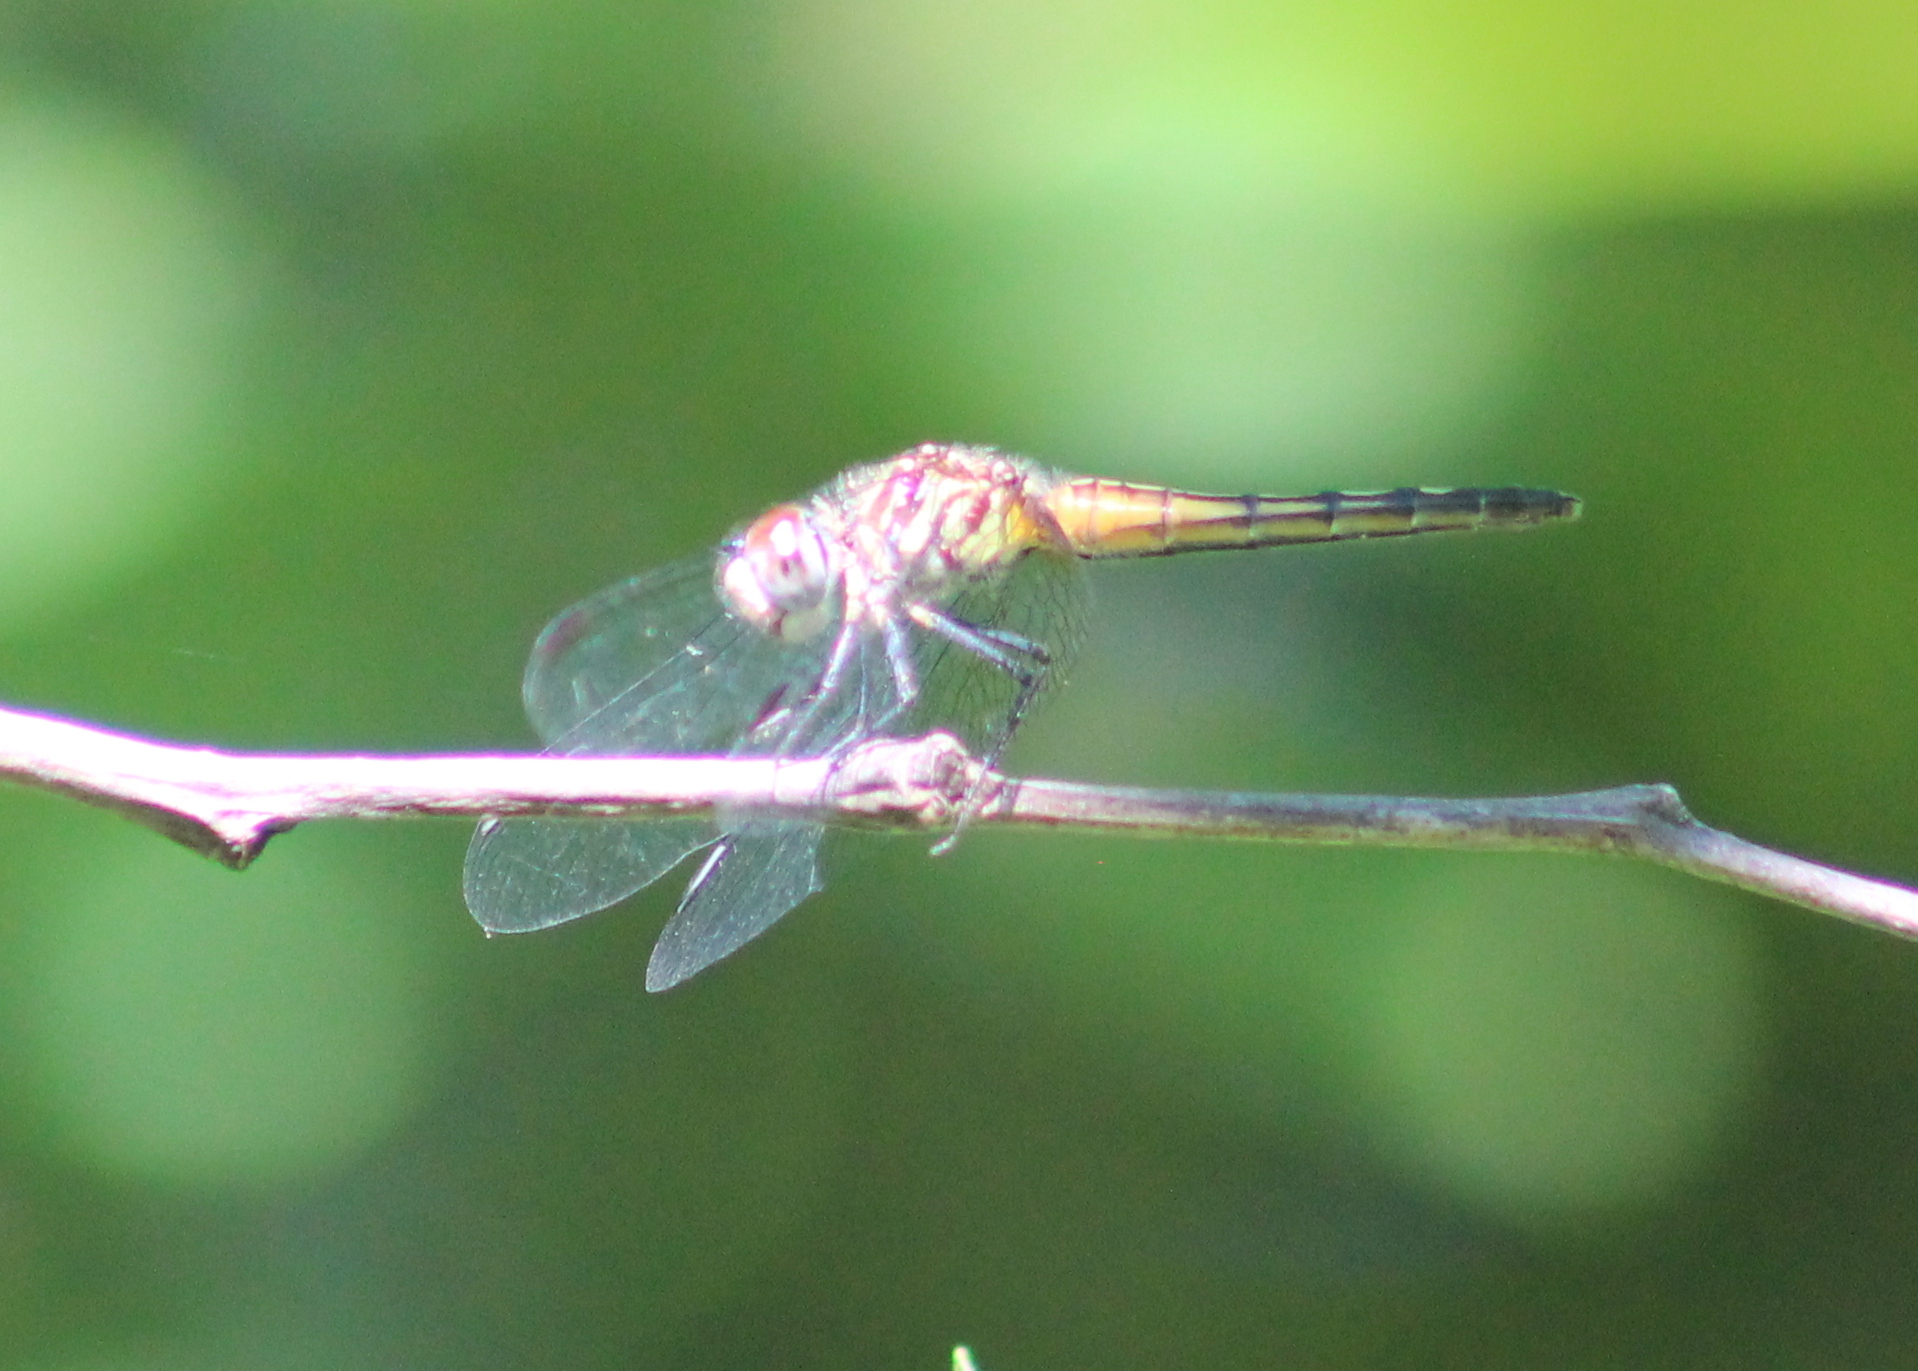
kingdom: Animalia
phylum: Arthropoda
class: Insecta
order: Odonata
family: Libellulidae
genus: Pachydiplax
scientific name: Pachydiplax longipennis
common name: Blue dasher
